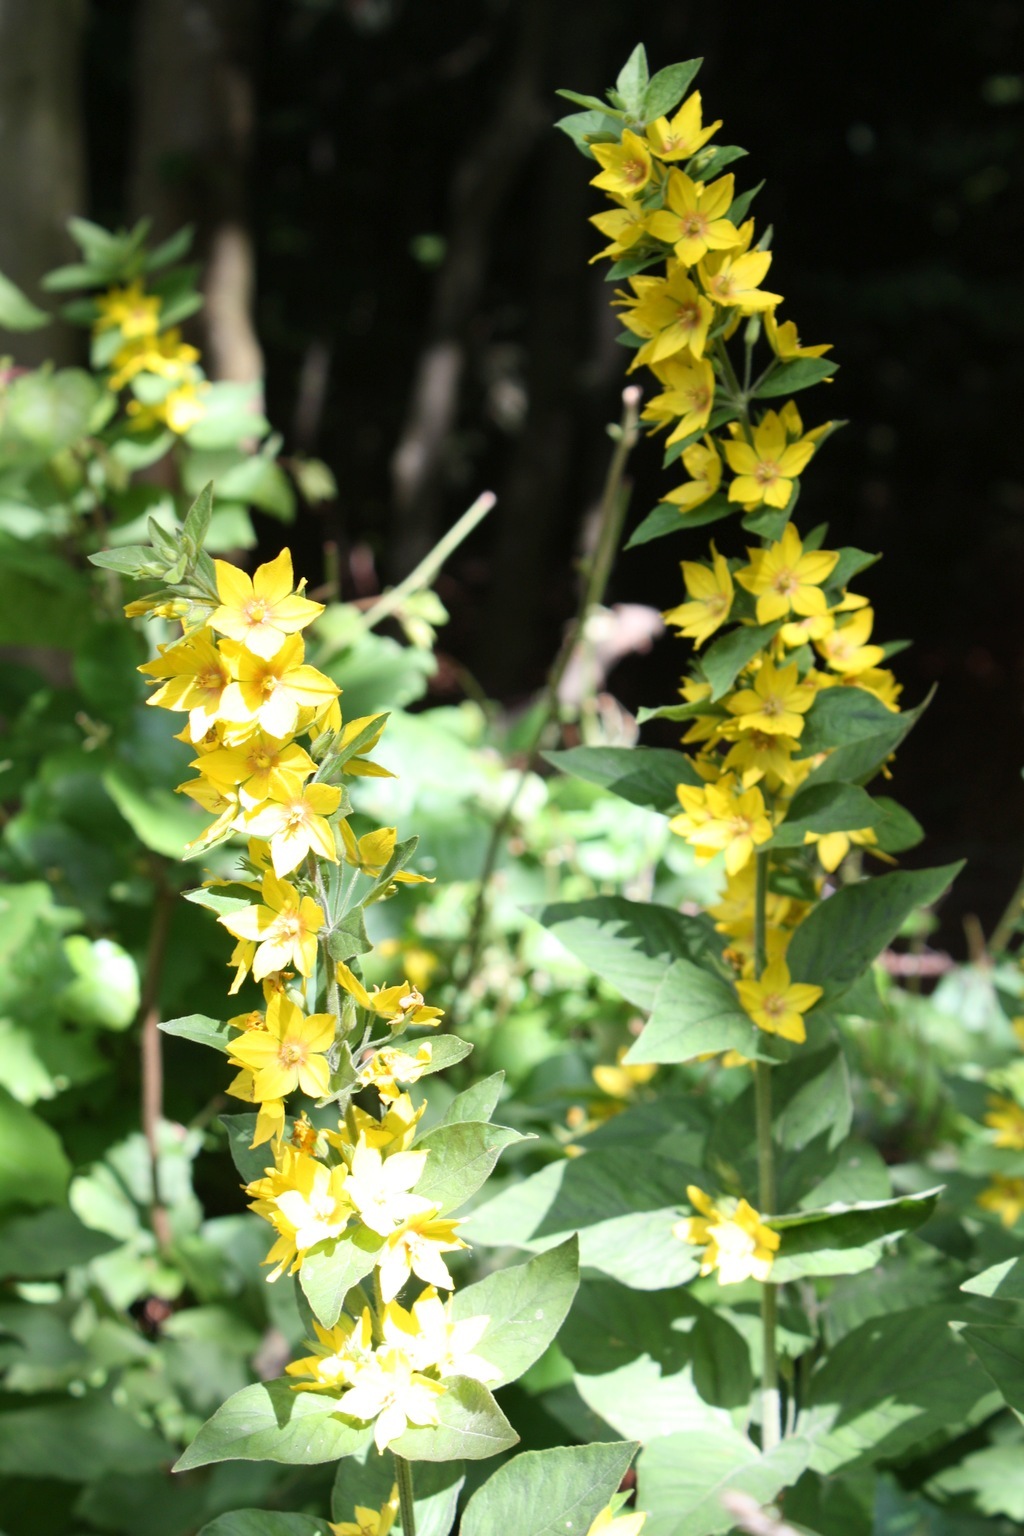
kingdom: Plantae
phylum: Tracheophyta
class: Magnoliopsida
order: Ericales
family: Primulaceae
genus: Lysimachia
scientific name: Lysimachia punctata
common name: Dotted loosestrife
